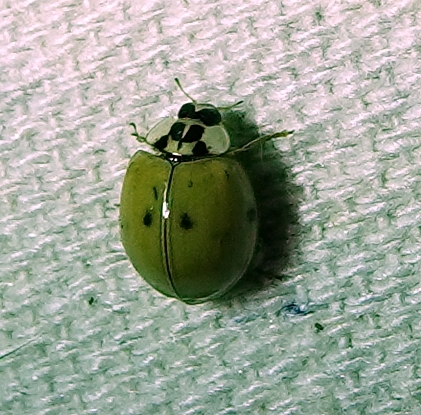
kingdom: Animalia
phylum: Arthropoda
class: Insecta
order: Coleoptera
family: Coccinellidae
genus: Harmonia
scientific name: Harmonia axyridis
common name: Harlequin ladybird
